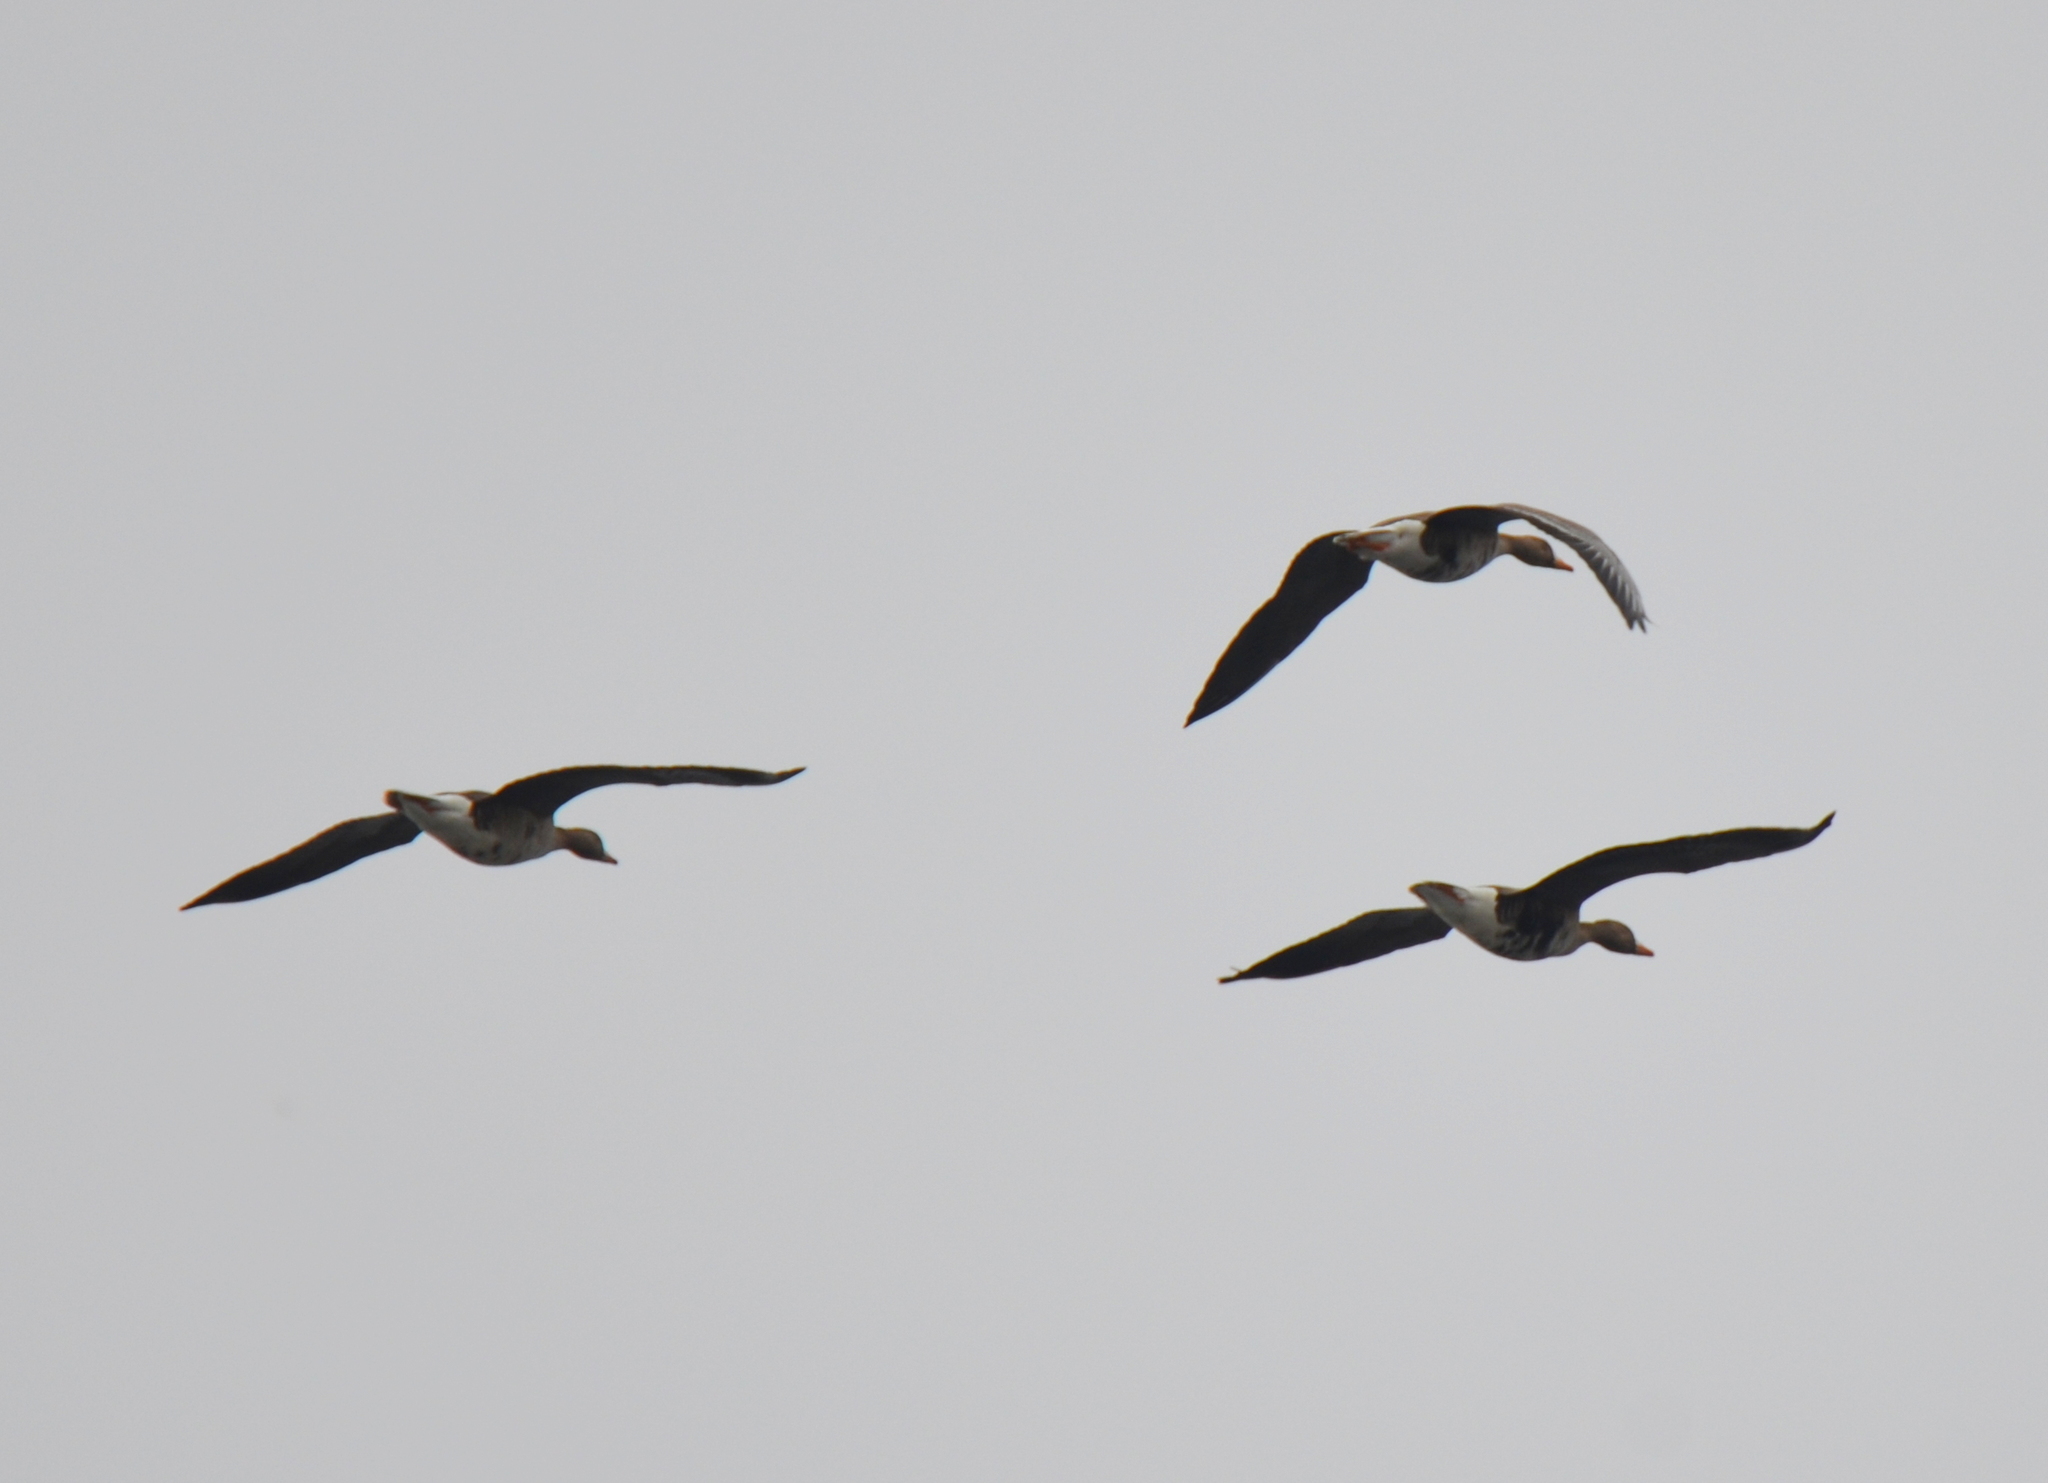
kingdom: Animalia
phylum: Chordata
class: Aves
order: Anseriformes
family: Anatidae
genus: Anser
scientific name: Anser albifrons
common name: Greater white-fronted goose
